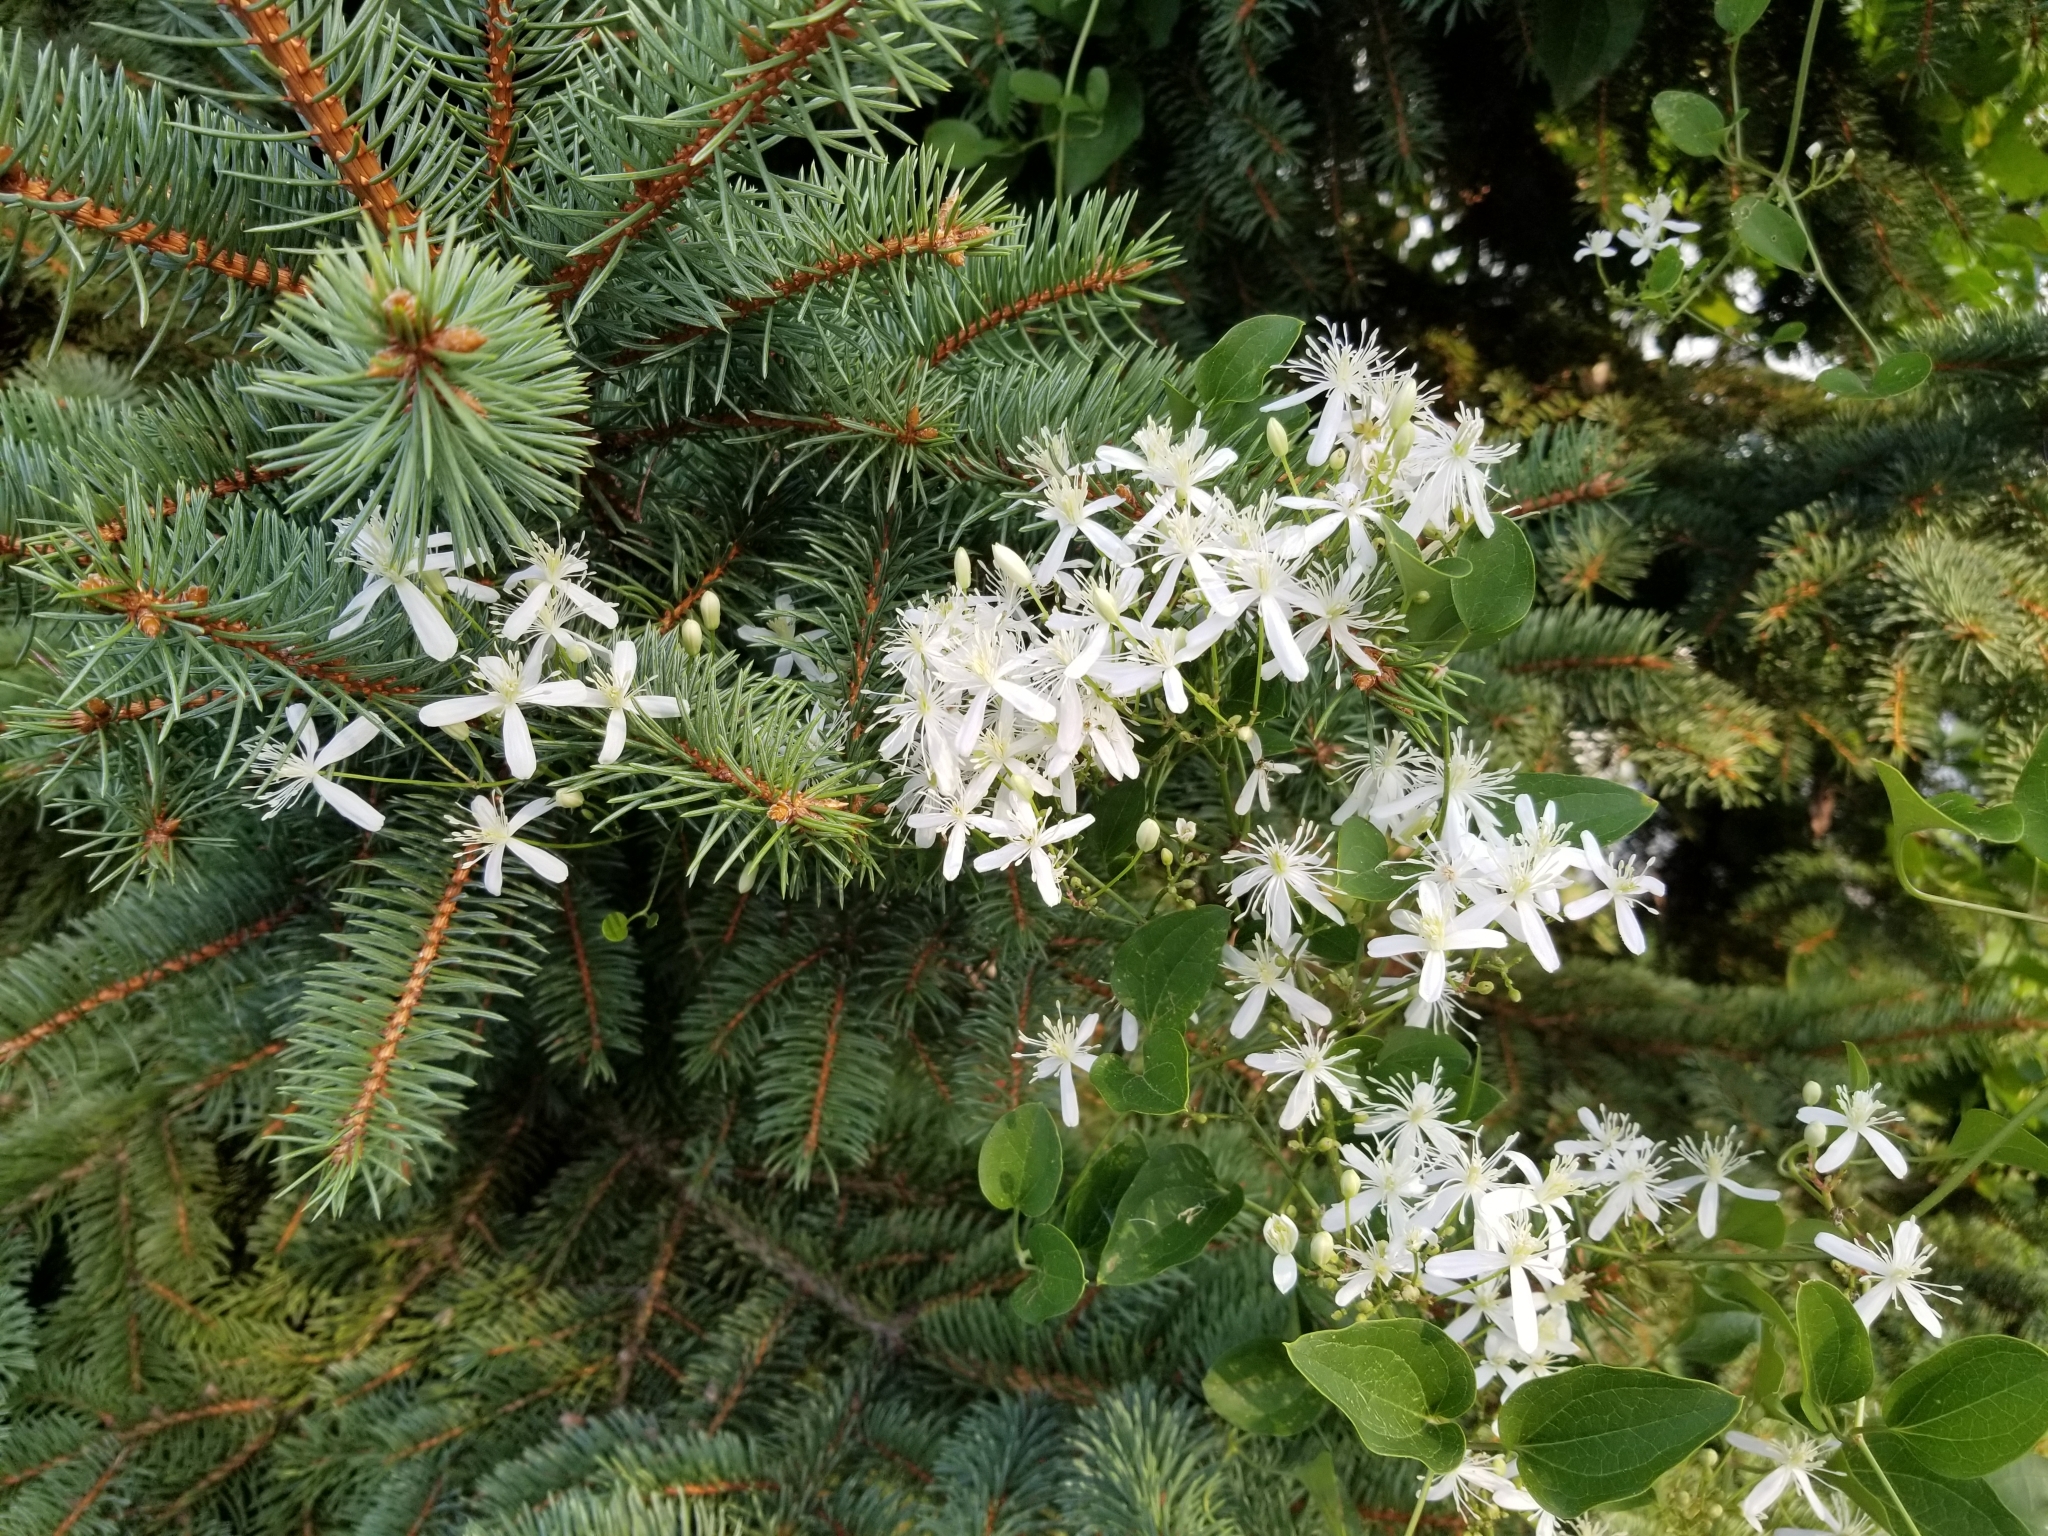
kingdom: Plantae
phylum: Tracheophyta
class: Magnoliopsida
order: Ranunculales
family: Ranunculaceae
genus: Clematis
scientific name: Clematis terniflora
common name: Sweet autumn clematis
